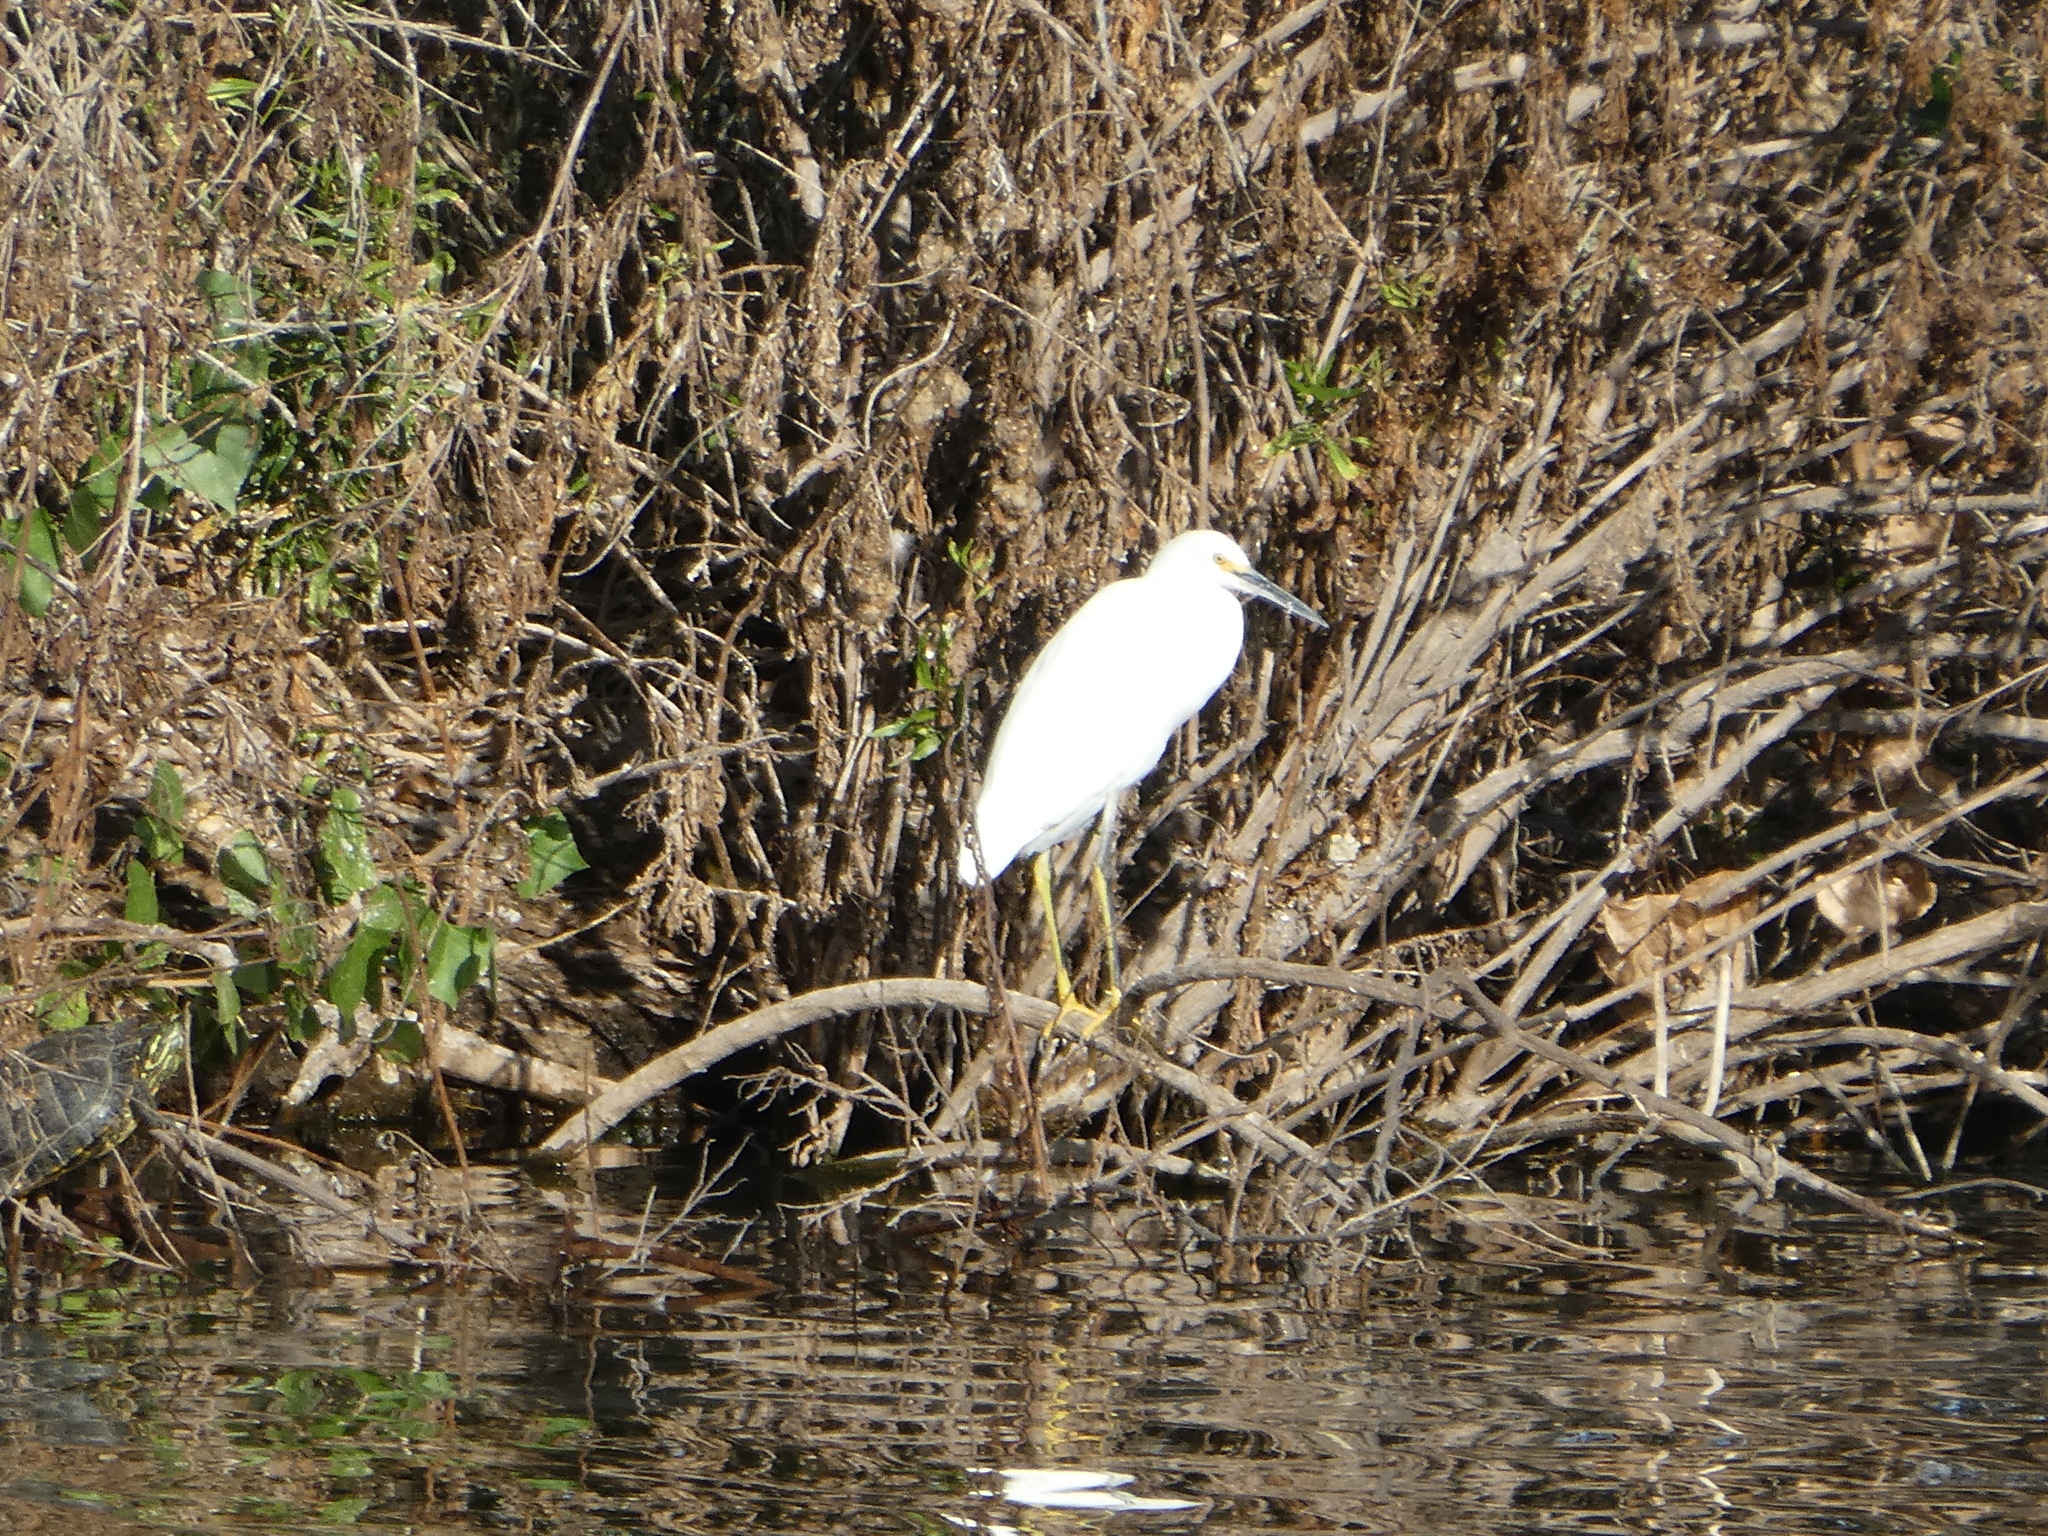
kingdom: Animalia
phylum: Chordata
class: Aves
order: Pelecaniformes
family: Ardeidae
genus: Egretta
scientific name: Egretta thula
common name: Snowy egret
